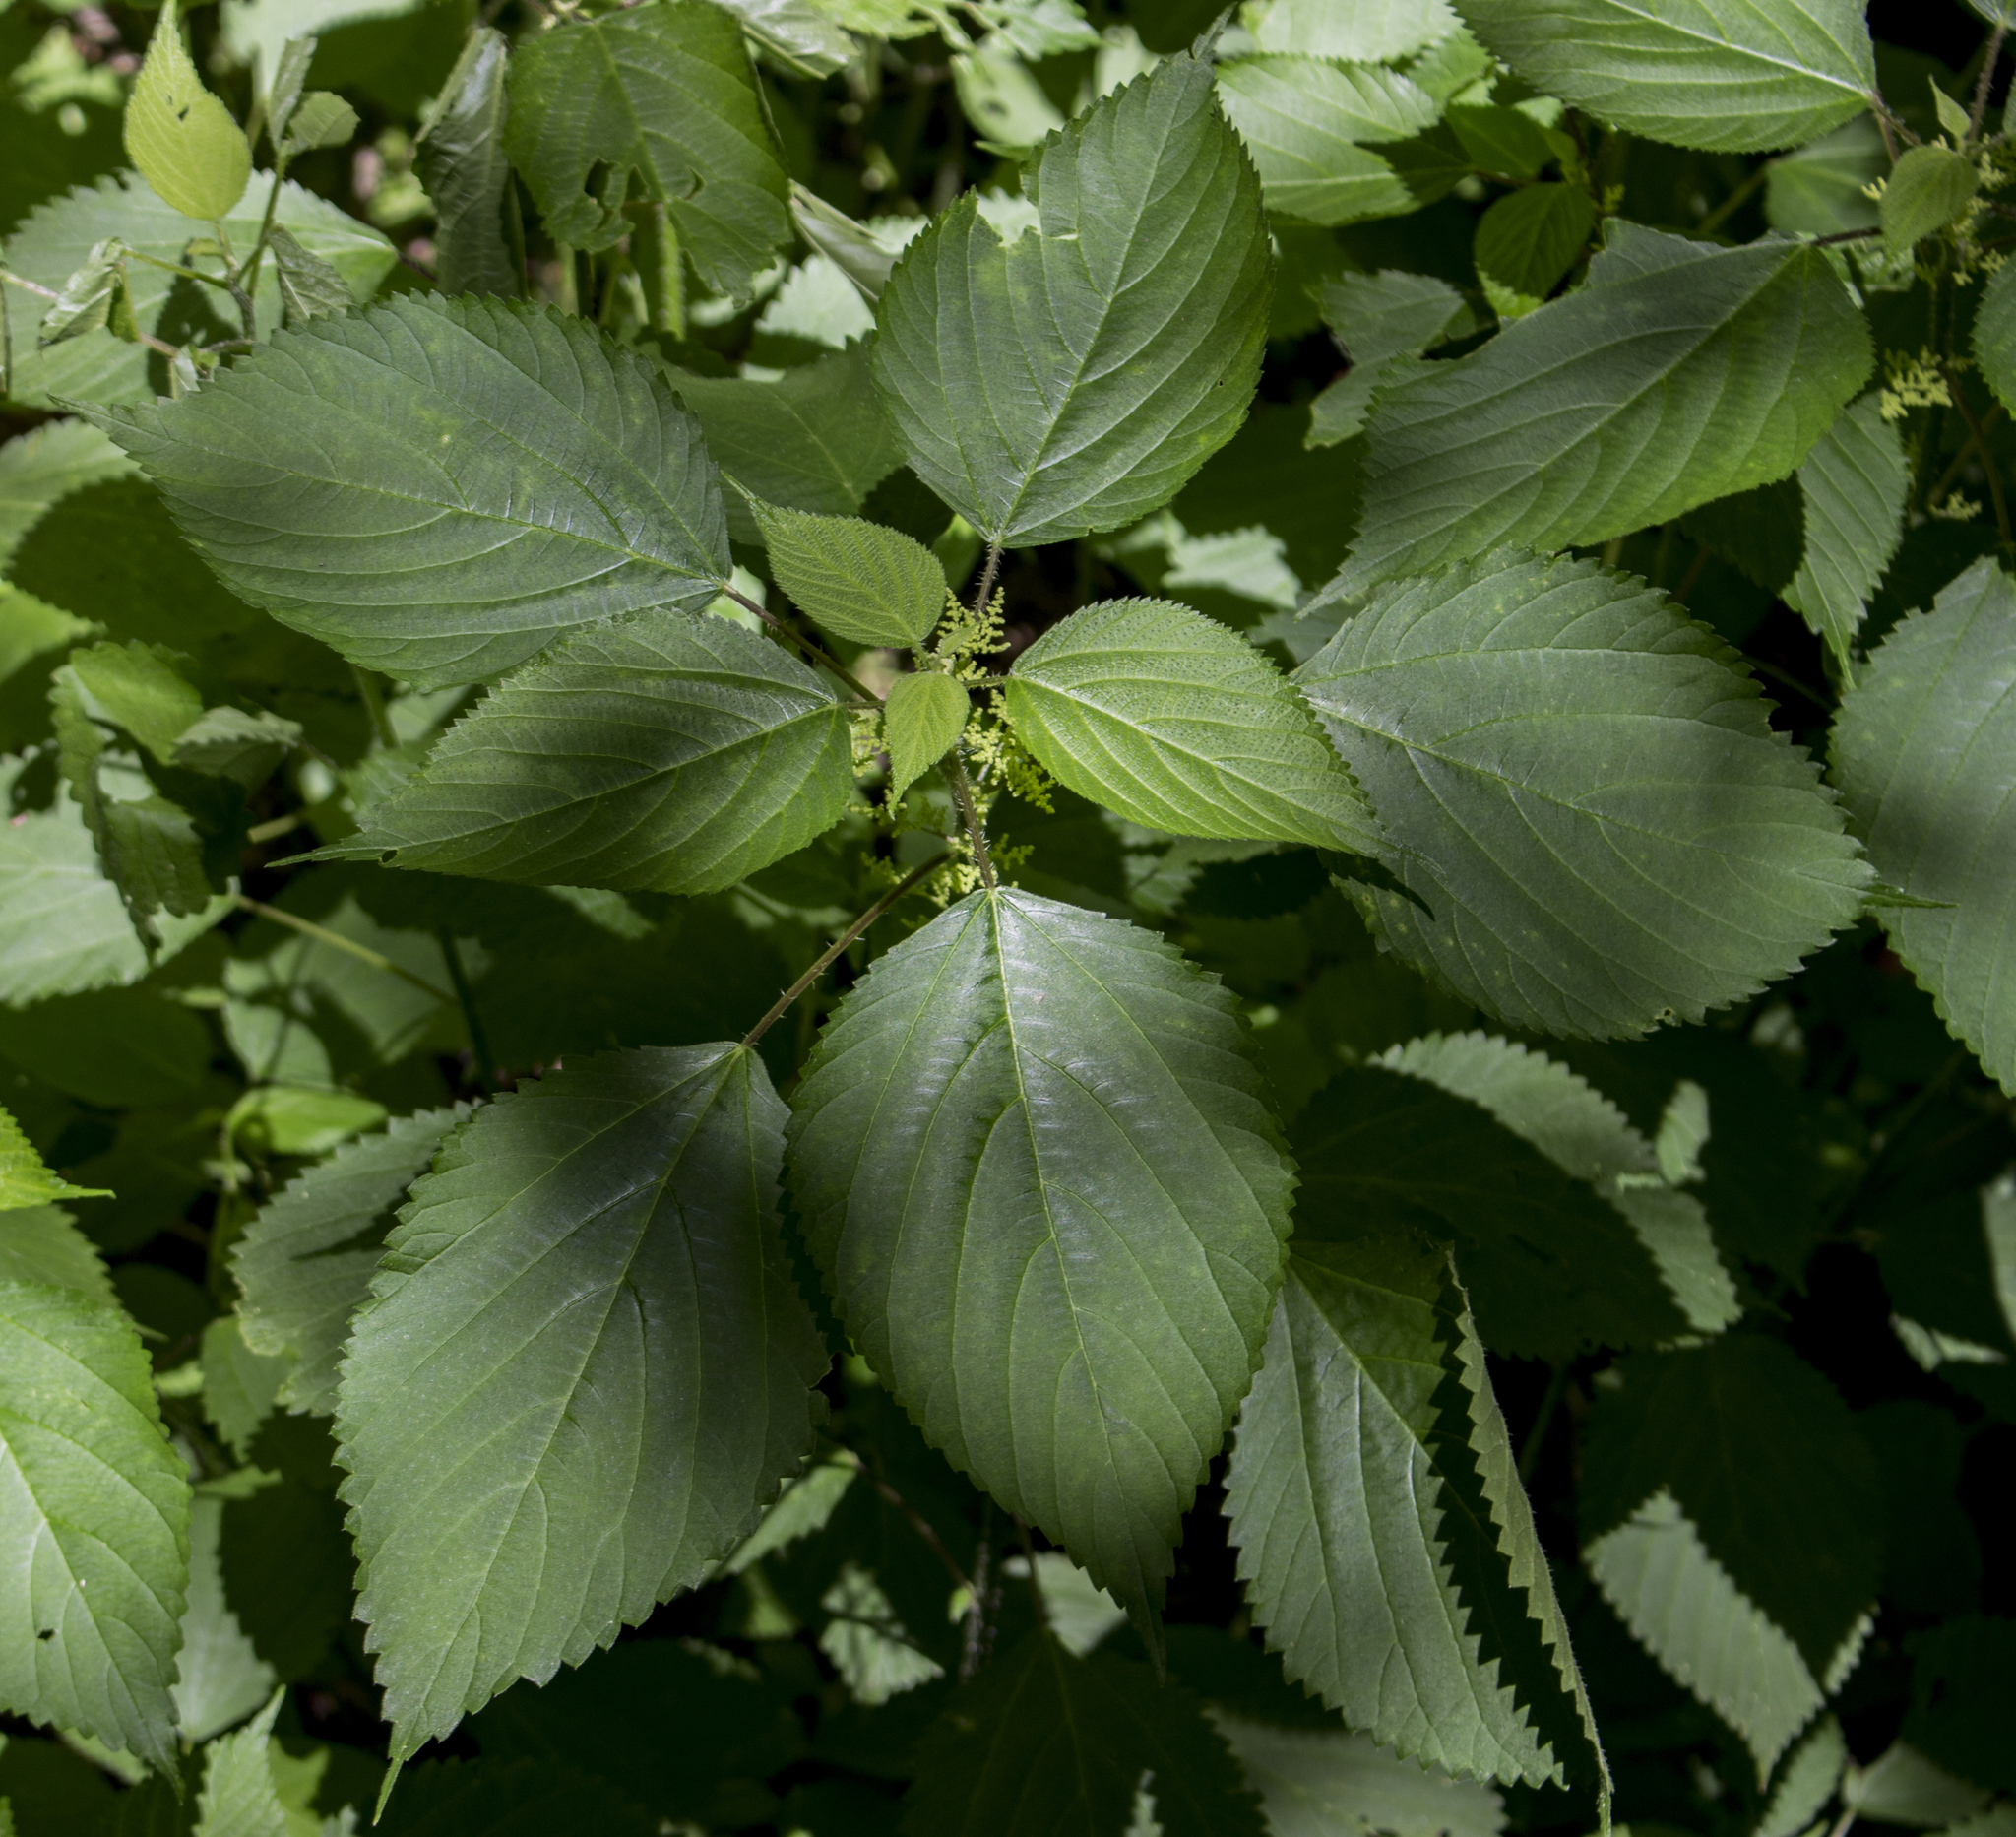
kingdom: Plantae
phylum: Tracheophyta
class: Magnoliopsida
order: Rosales
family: Urticaceae
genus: Laportea
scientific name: Laportea canadensis
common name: Canada nettle
